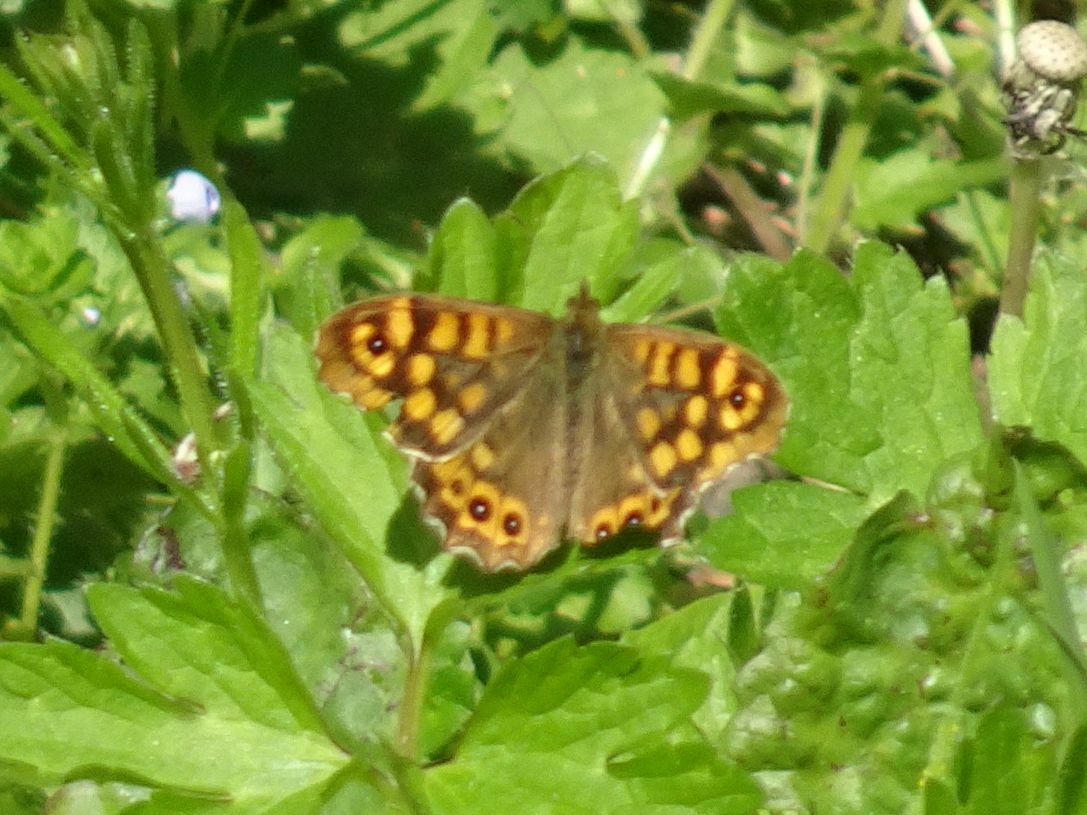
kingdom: Animalia
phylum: Arthropoda
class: Insecta
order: Lepidoptera
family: Nymphalidae
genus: Pararge
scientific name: Pararge aegeria
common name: Speckled wood
